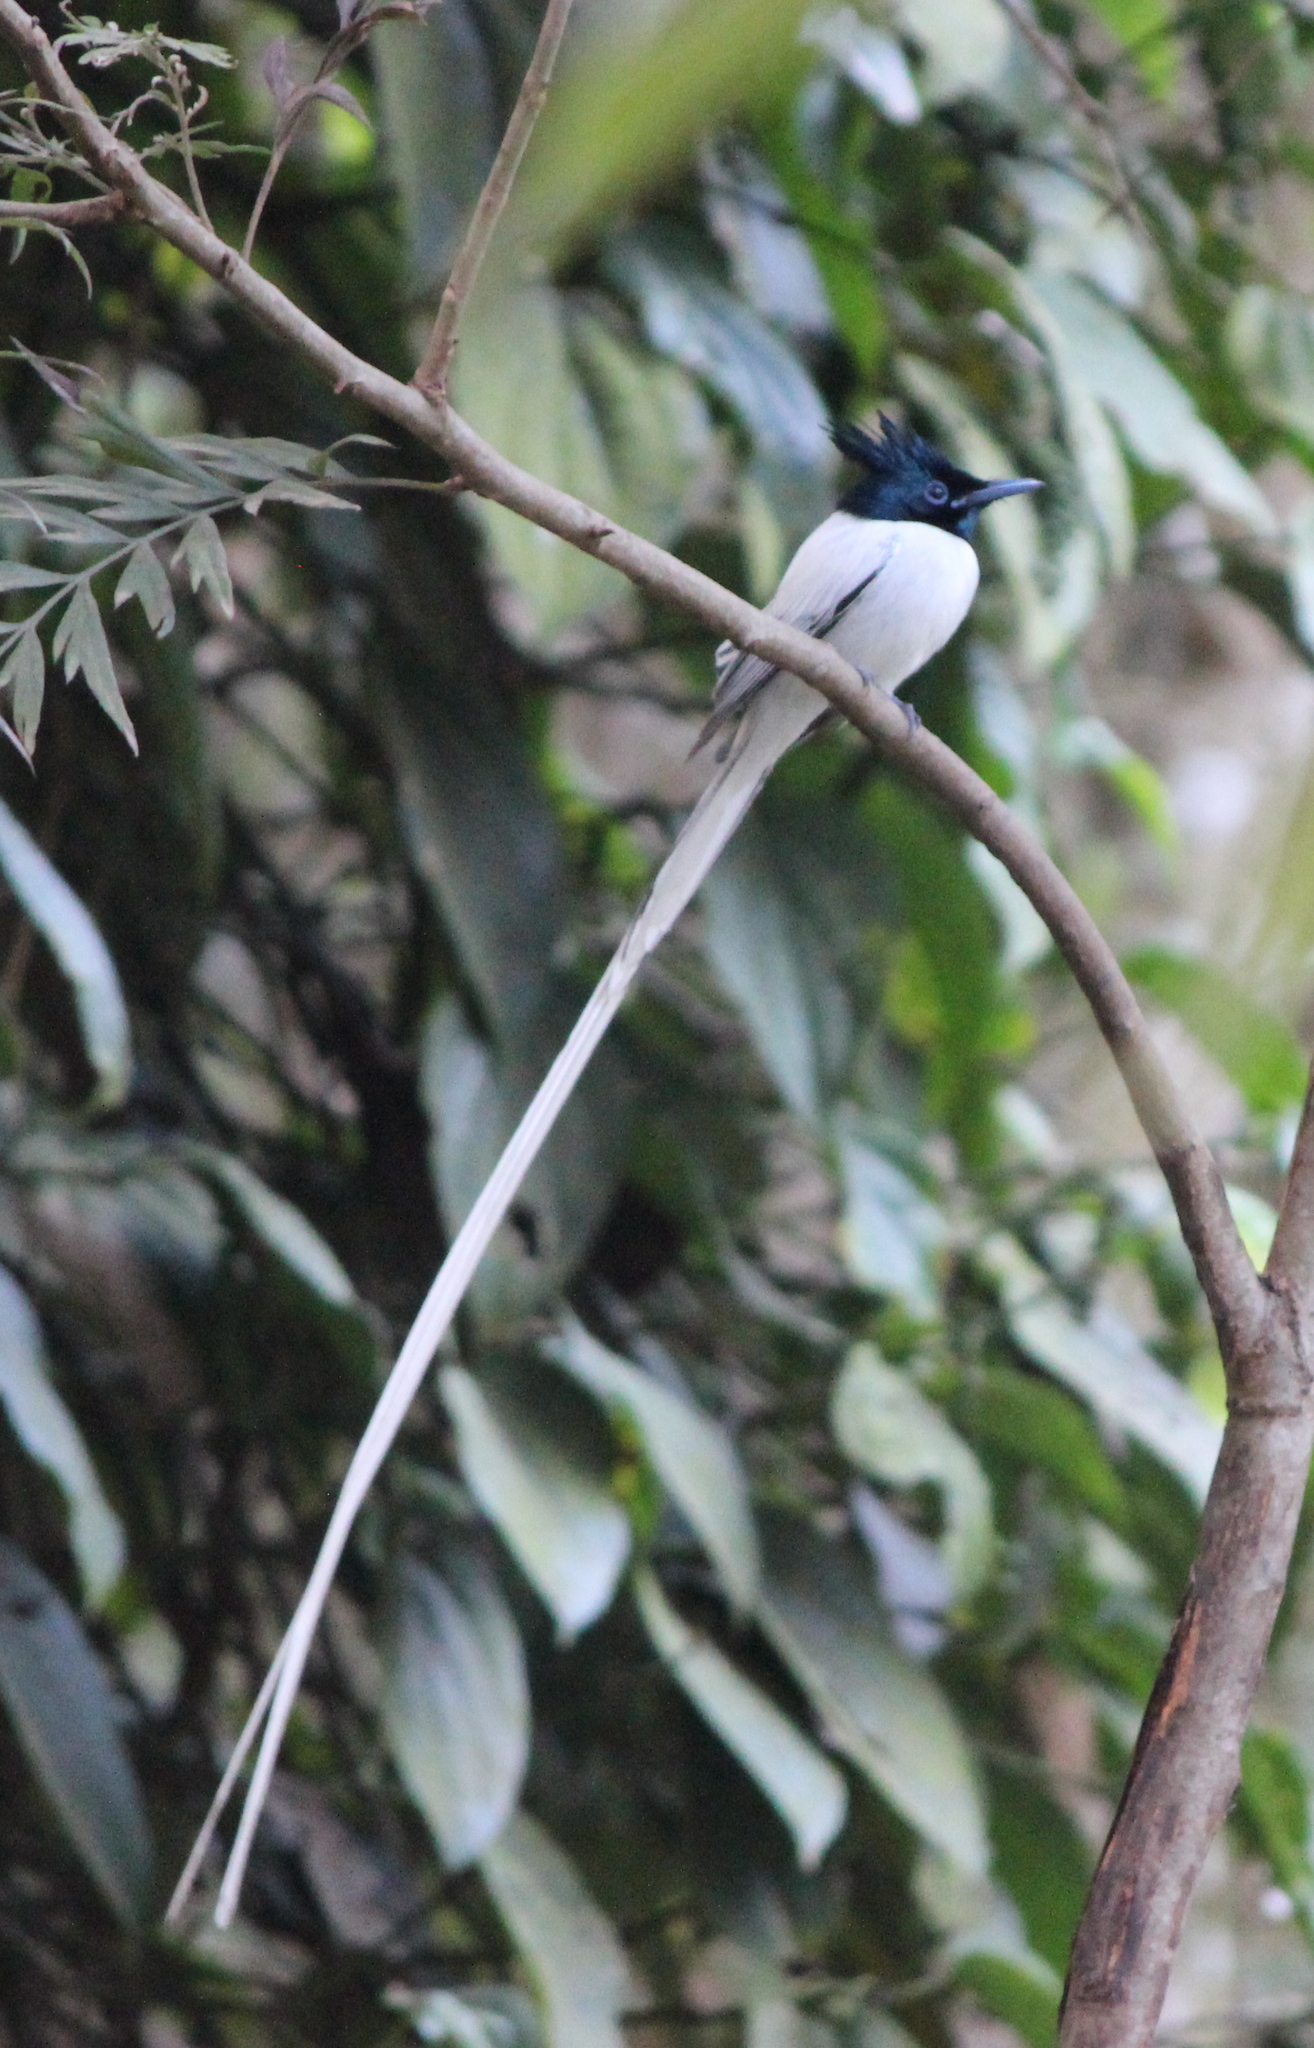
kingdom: Animalia
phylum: Chordata
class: Aves
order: Passeriformes
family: Monarchidae
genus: Terpsiphone
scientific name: Terpsiphone paradisi
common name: Indian paradise flycatcher
